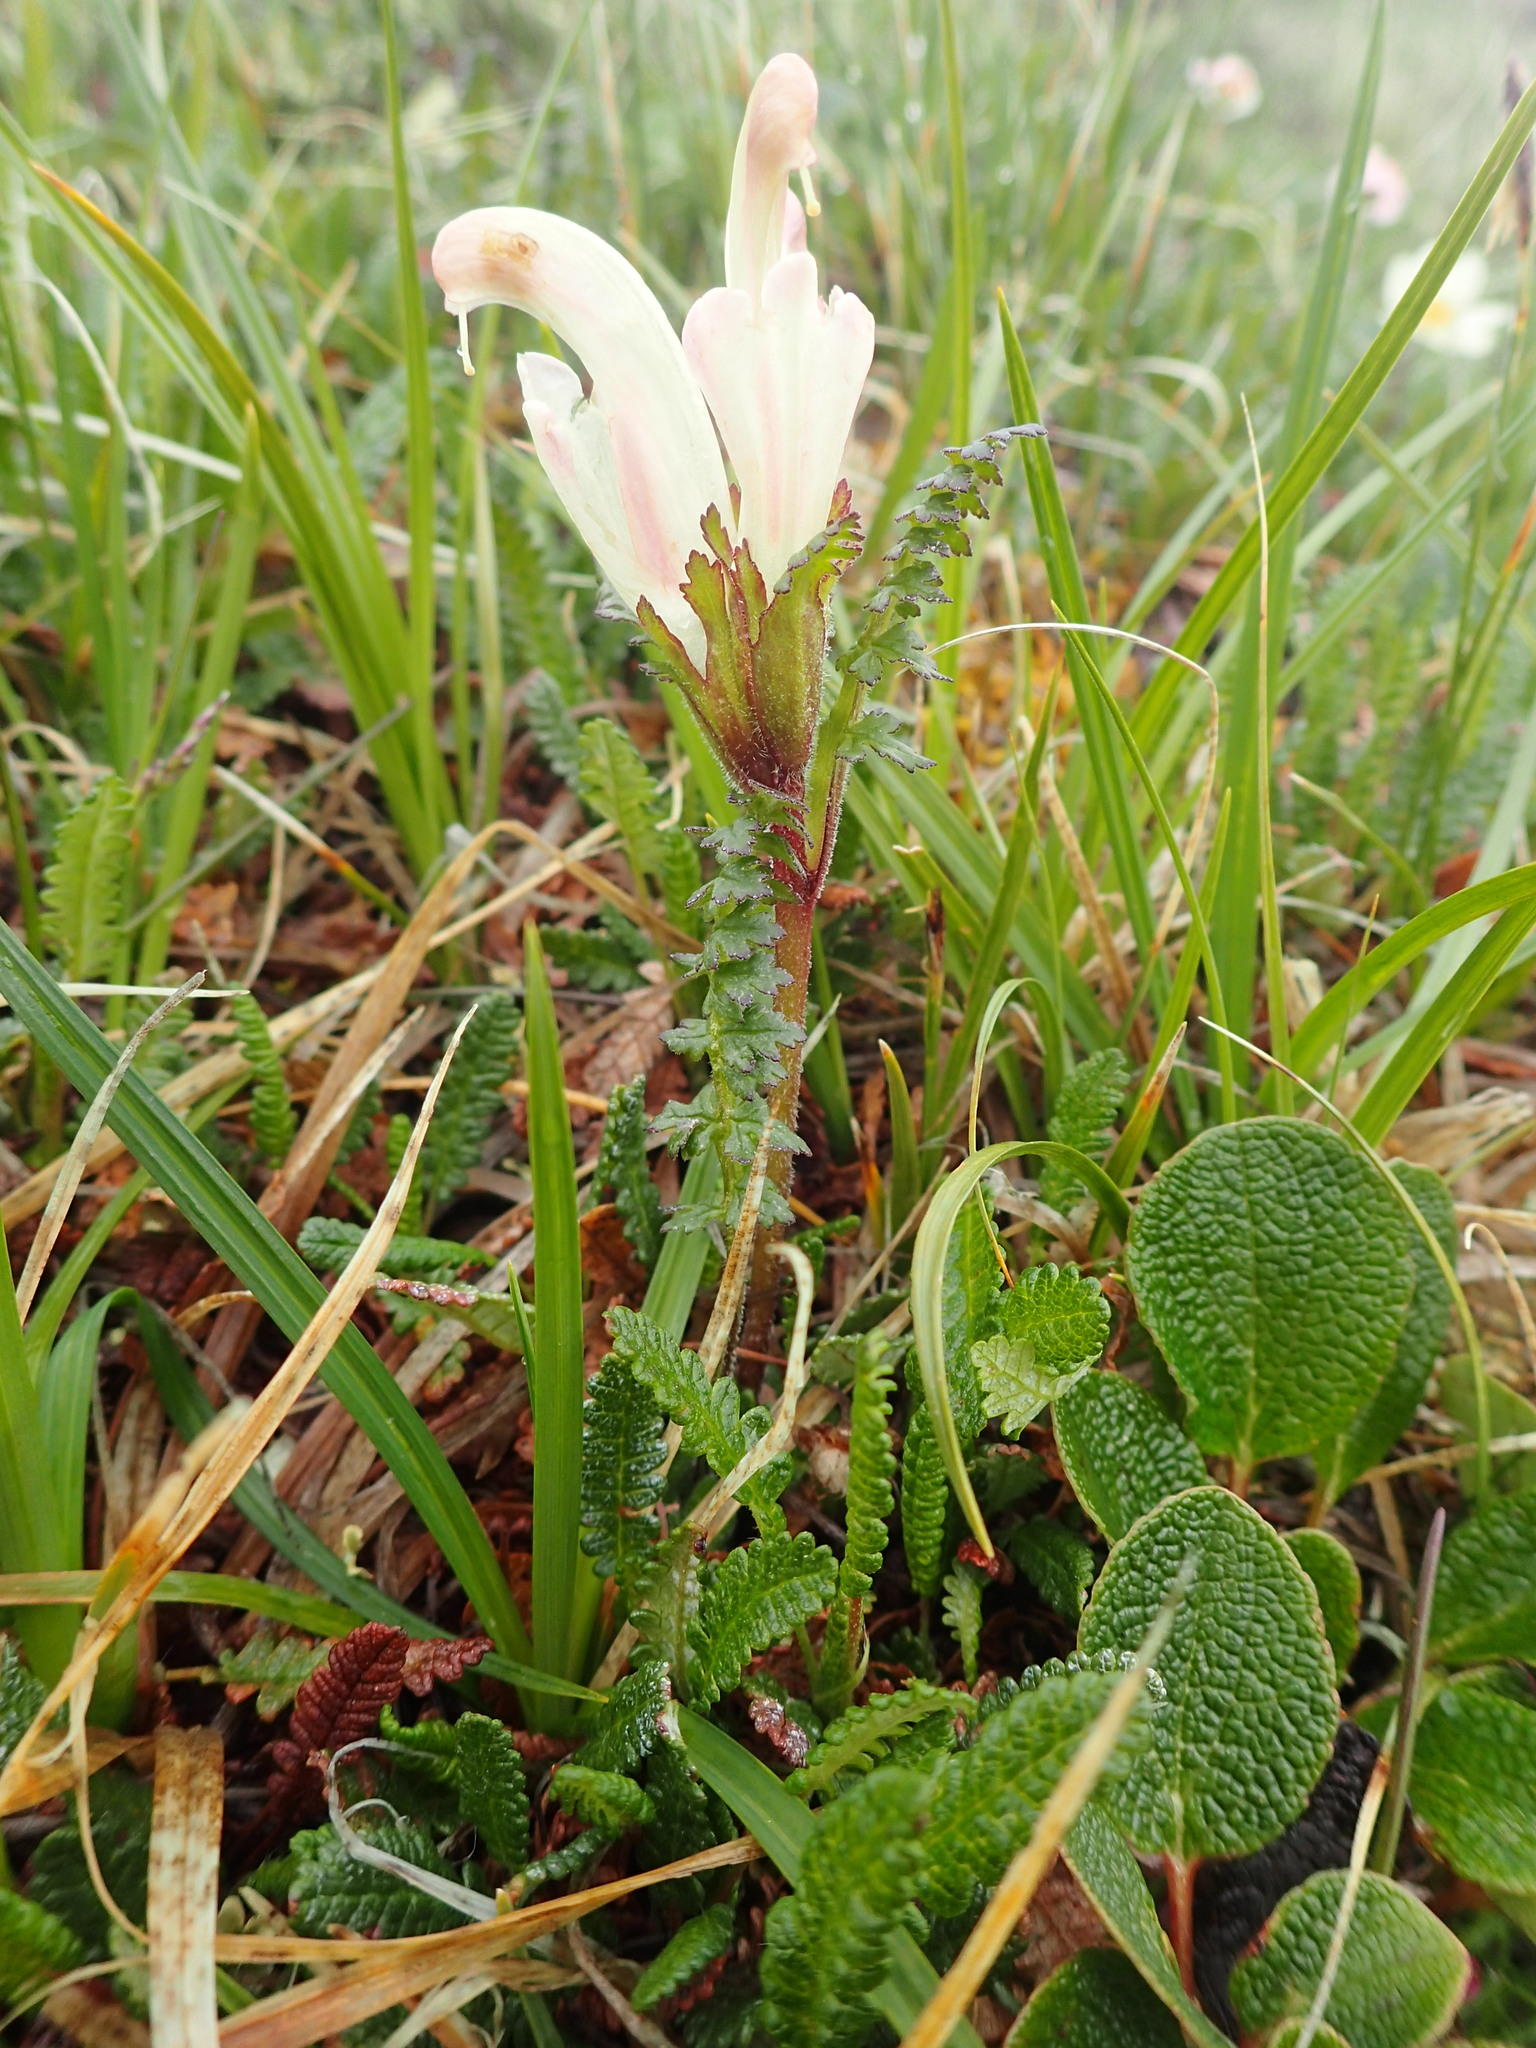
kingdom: Plantae
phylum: Tracheophyta
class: Magnoliopsida
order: Lamiales
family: Orobanchaceae
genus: Pedicularis
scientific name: Pedicularis capitata
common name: Capitate lousewort
